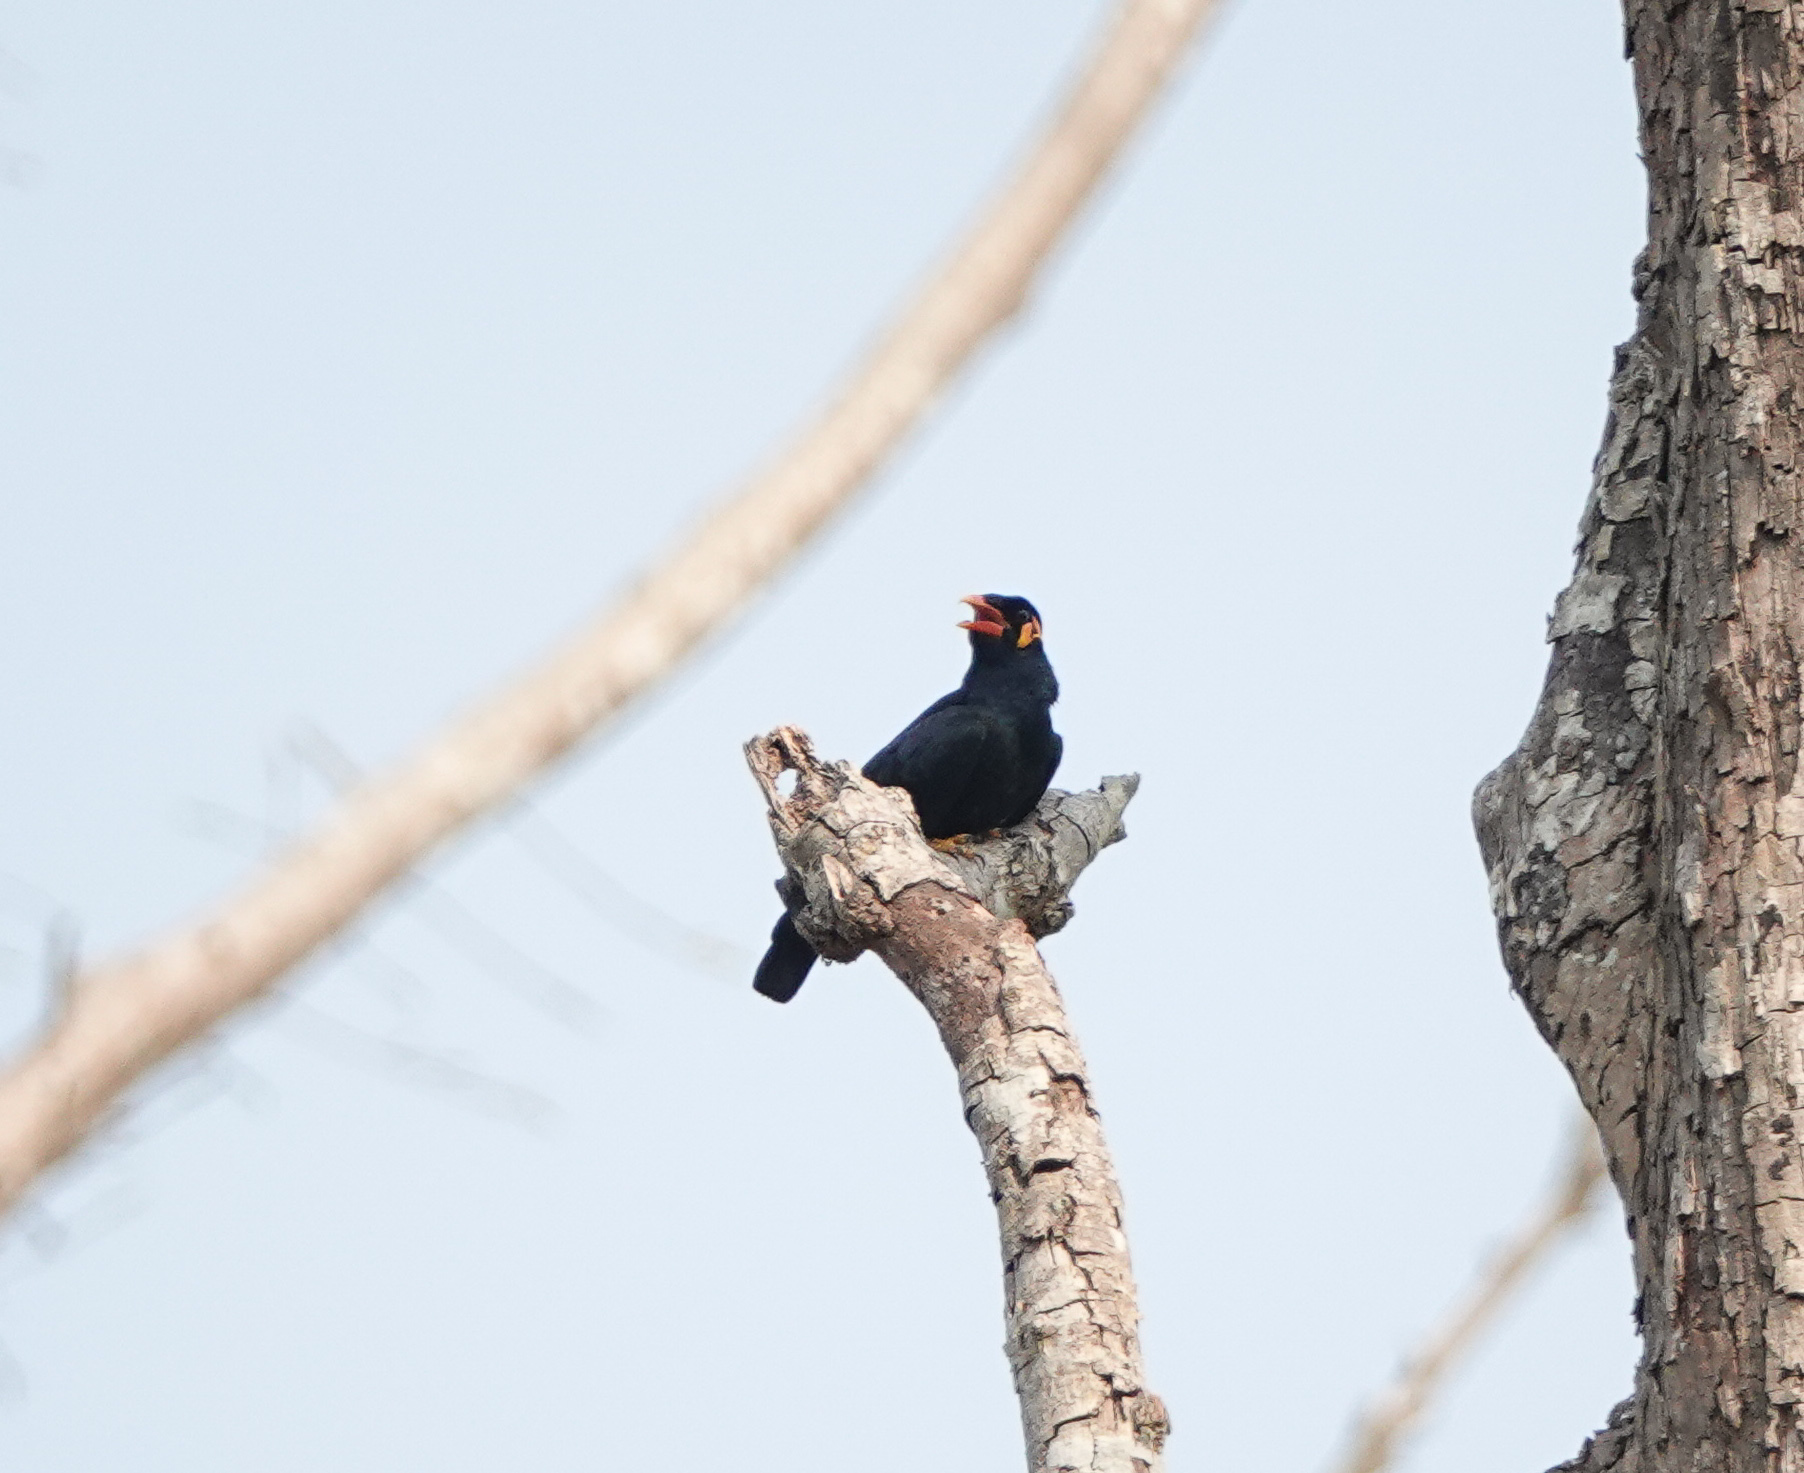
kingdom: Animalia
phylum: Chordata
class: Aves
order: Passeriformes
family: Sturnidae
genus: Gracula
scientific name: Gracula religiosa
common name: Common hill myna
